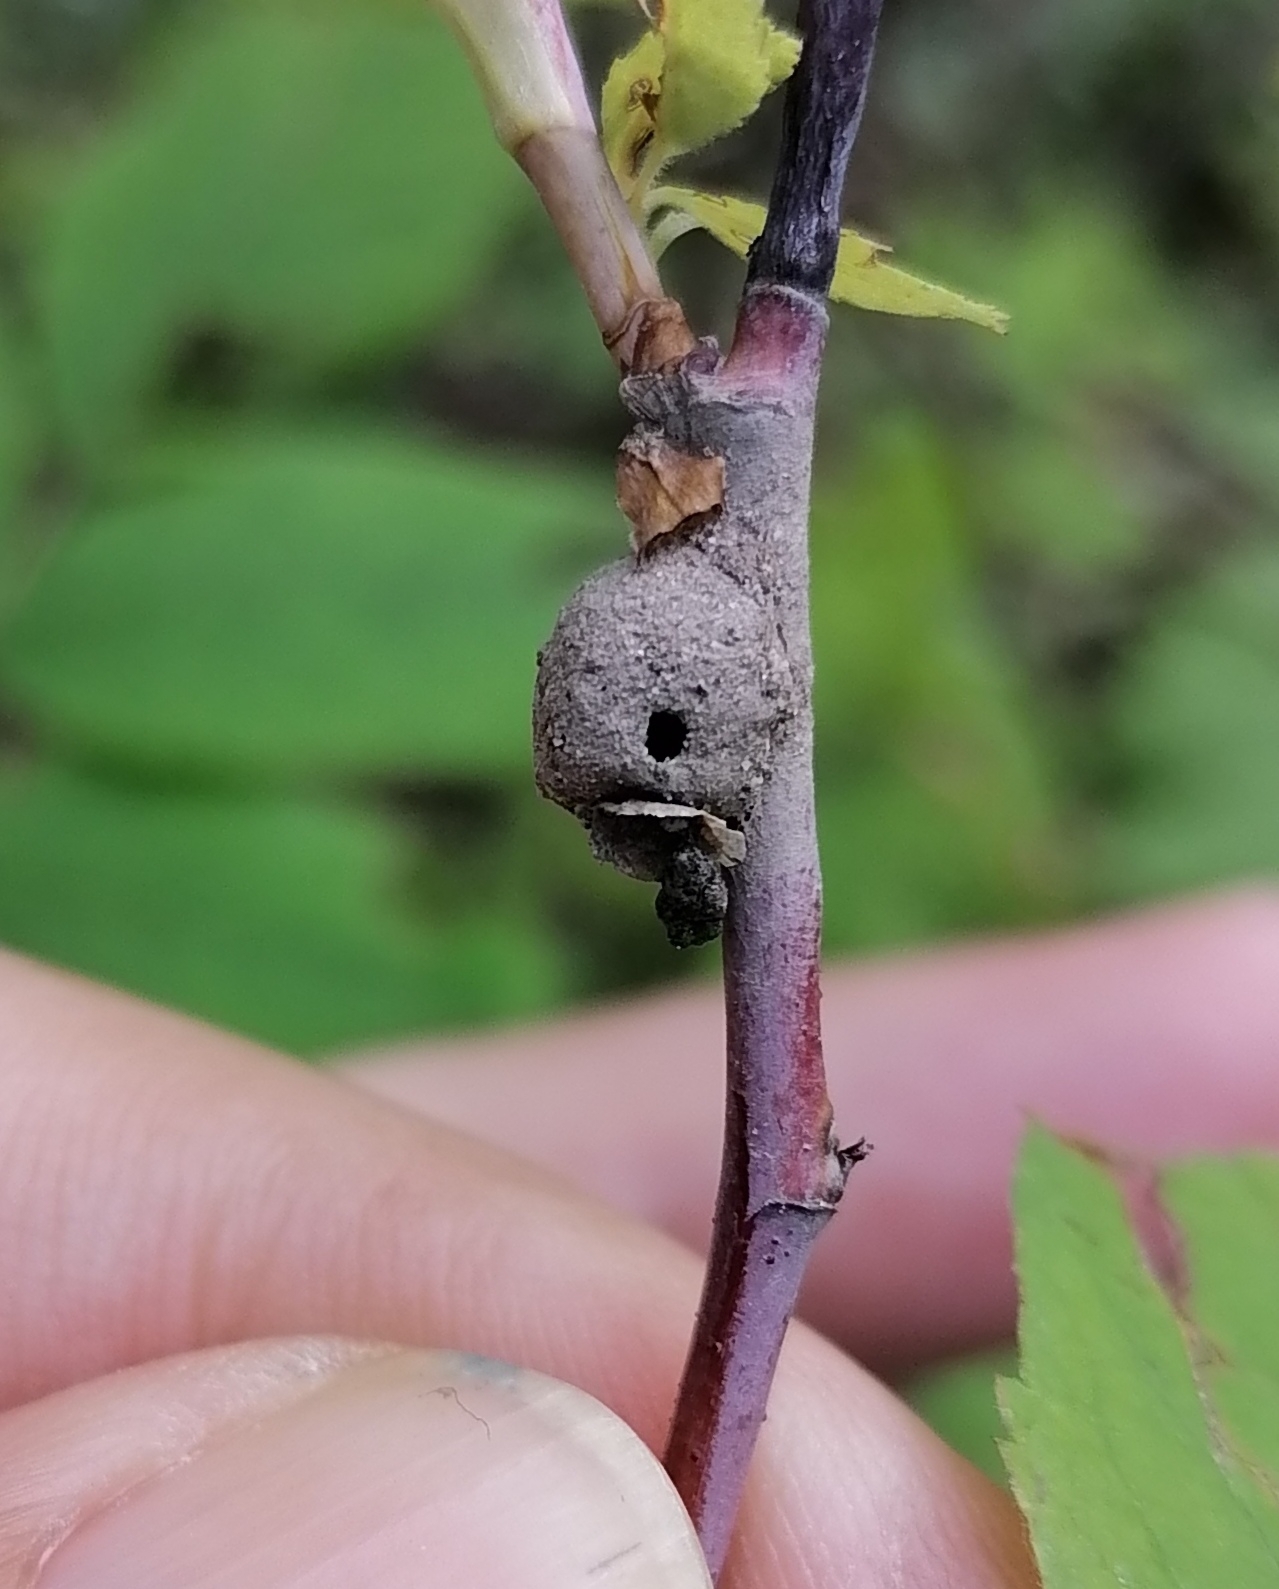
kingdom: Animalia
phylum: Arthropoda
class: Insecta
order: Hymenoptera
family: Vespidae
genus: Eumenes
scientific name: Eumenes
